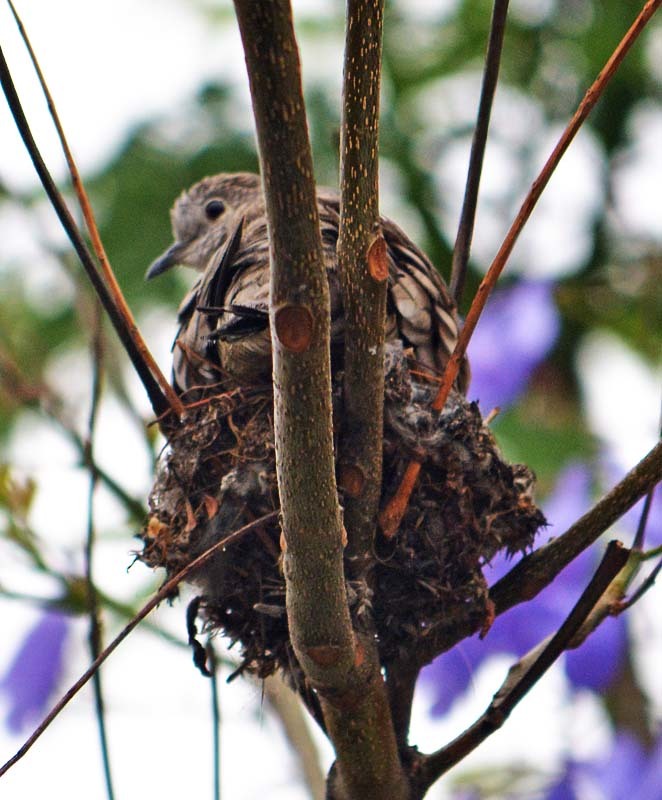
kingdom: Animalia
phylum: Chordata
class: Aves
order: Columbiformes
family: Columbidae
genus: Columbina
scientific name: Columbina inca
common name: Inca dove
